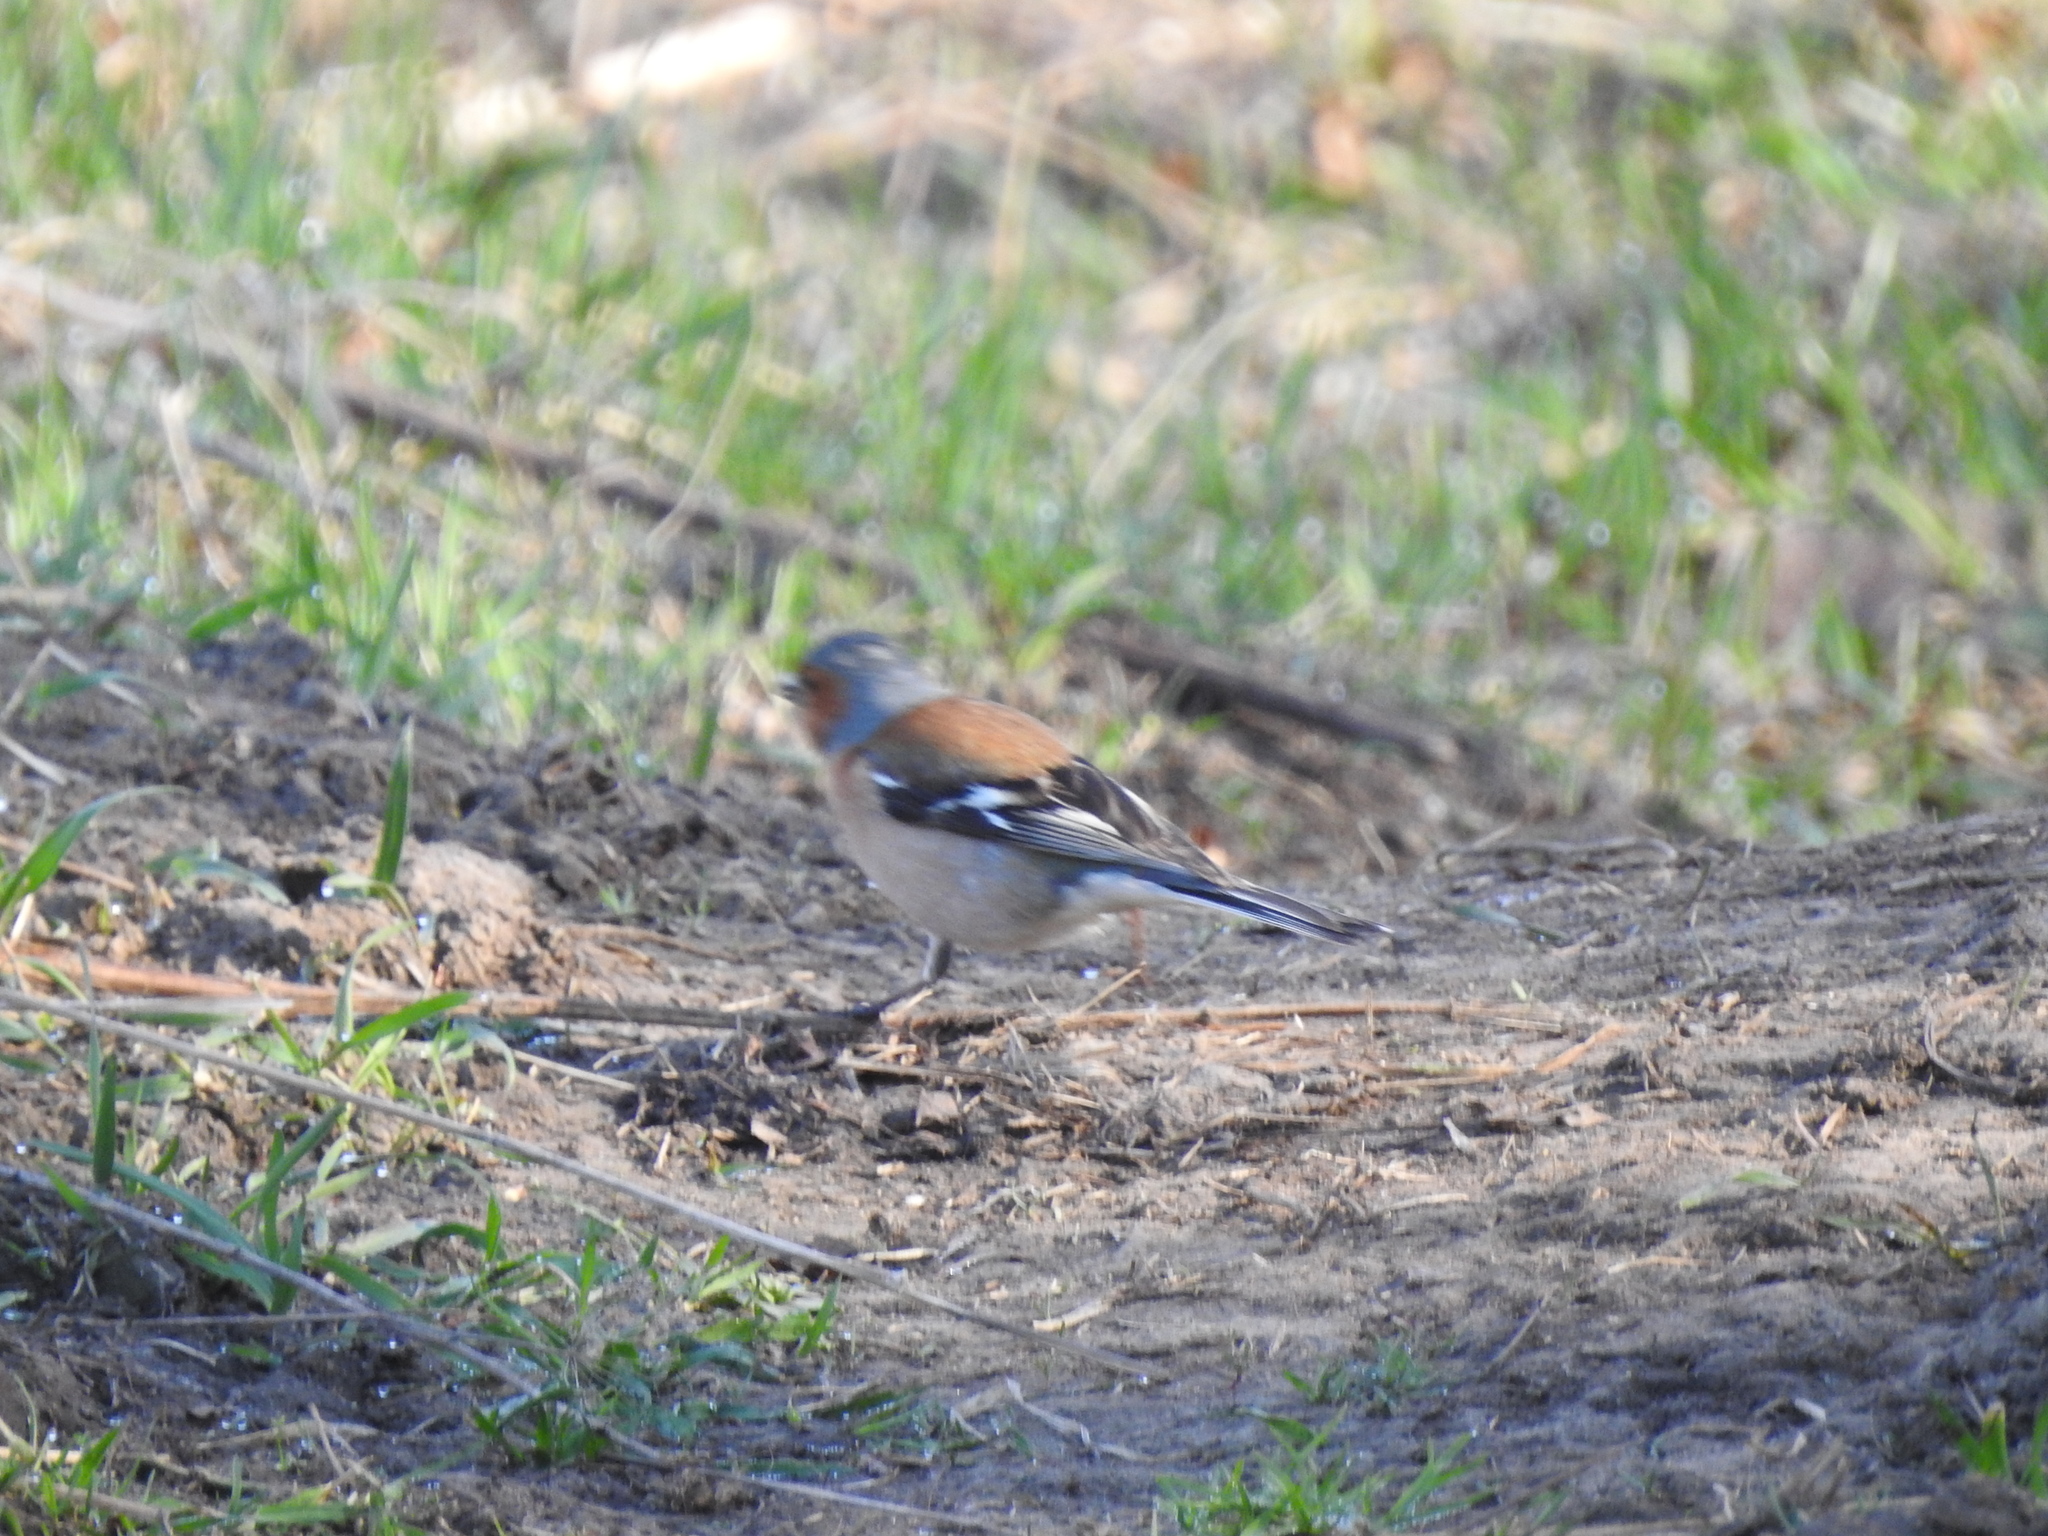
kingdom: Animalia
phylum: Chordata
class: Aves
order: Passeriformes
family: Fringillidae
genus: Fringilla
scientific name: Fringilla coelebs
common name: Common chaffinch
